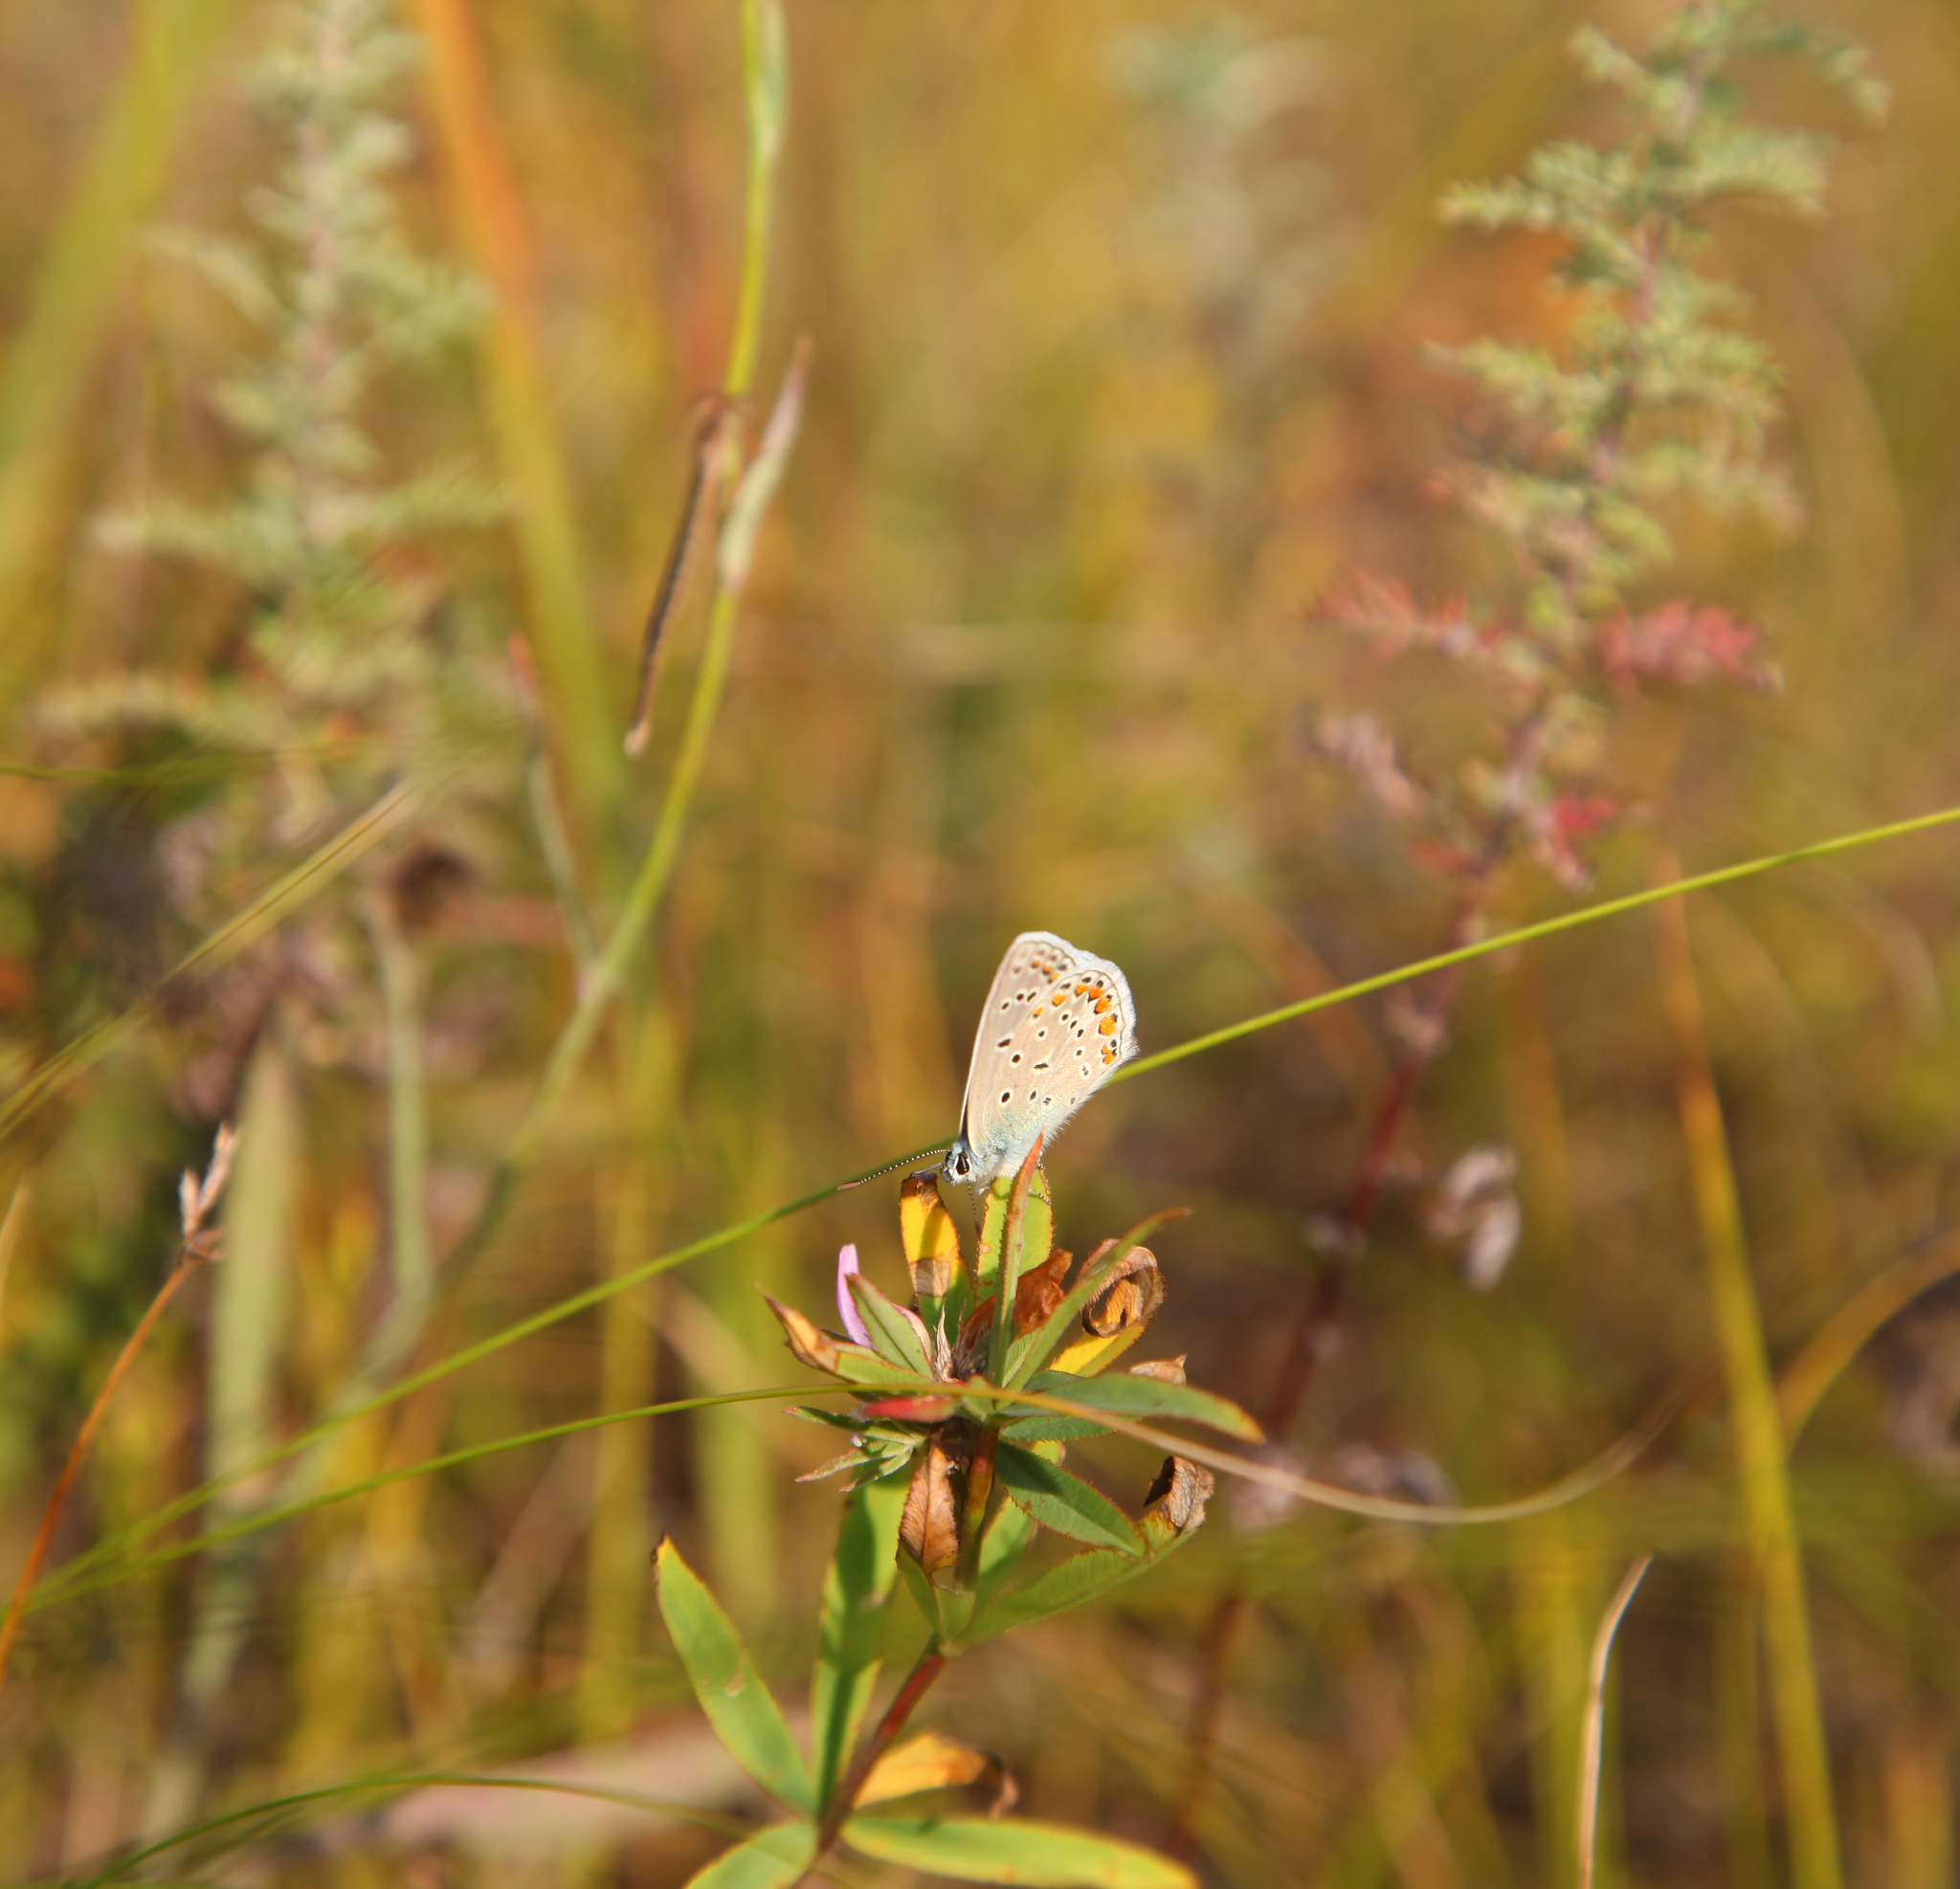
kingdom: Plantae
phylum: Tracheophyta
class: Magnoliopsida
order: Fabales
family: Fabaceae
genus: Trifolium
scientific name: Trifolium lupinaster
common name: Lupine clover
